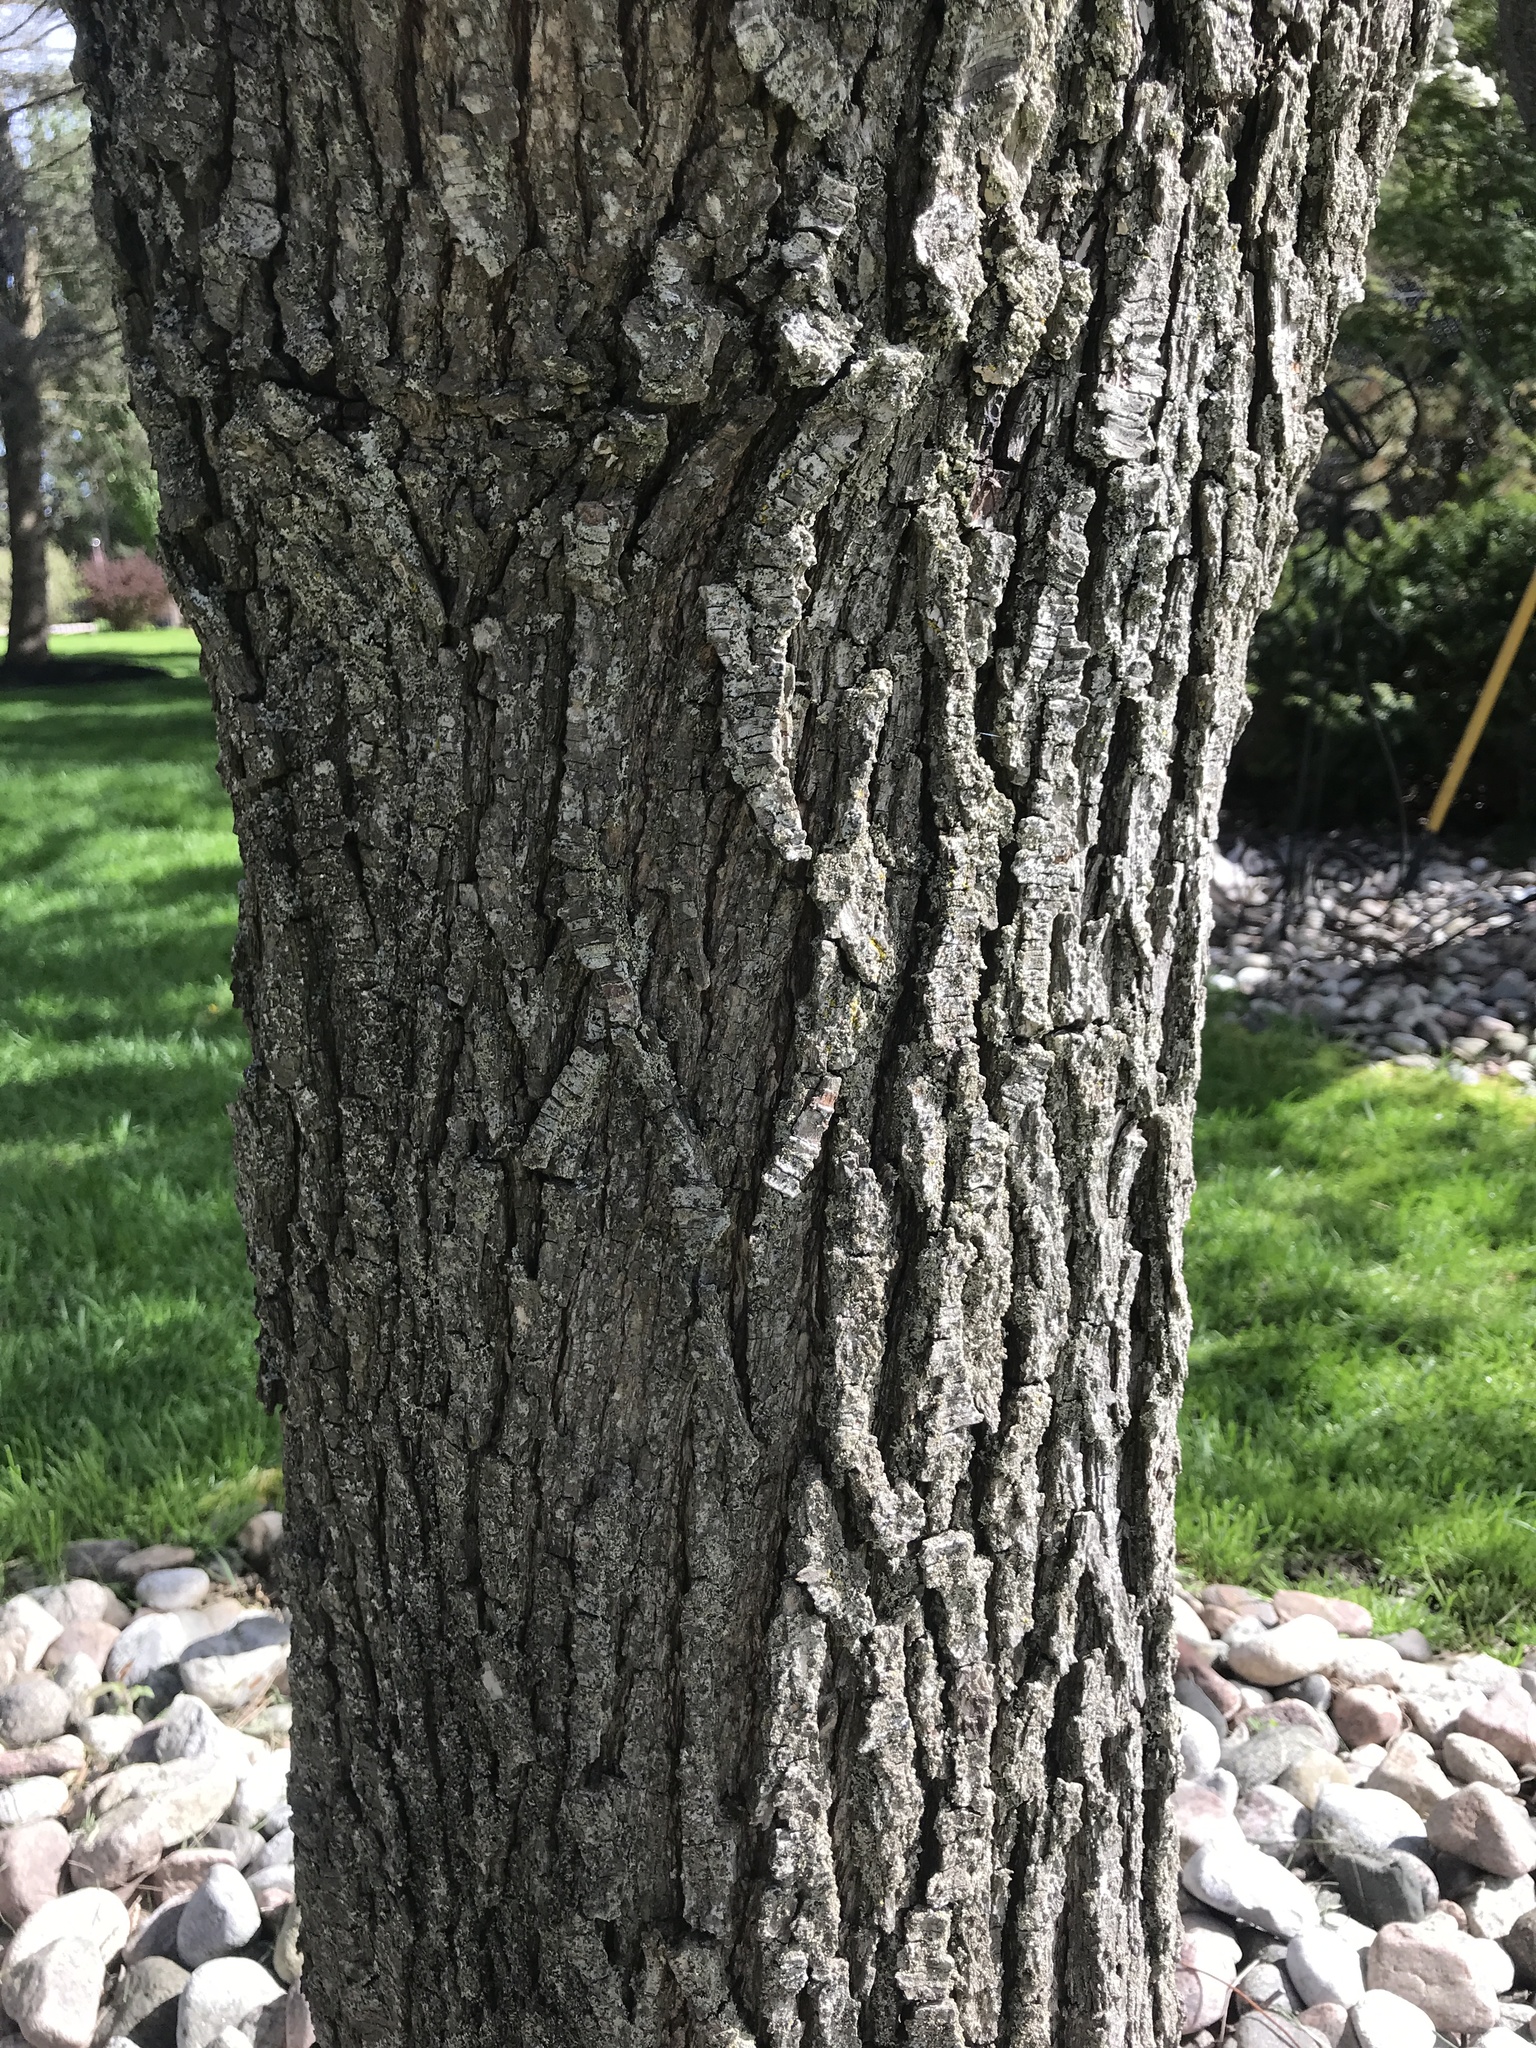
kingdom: Plantae
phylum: Tracheophyta
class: Magnoliopsida
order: Rosales
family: Rosaceae
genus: Pyrus
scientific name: Pyrus communis
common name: Pear
